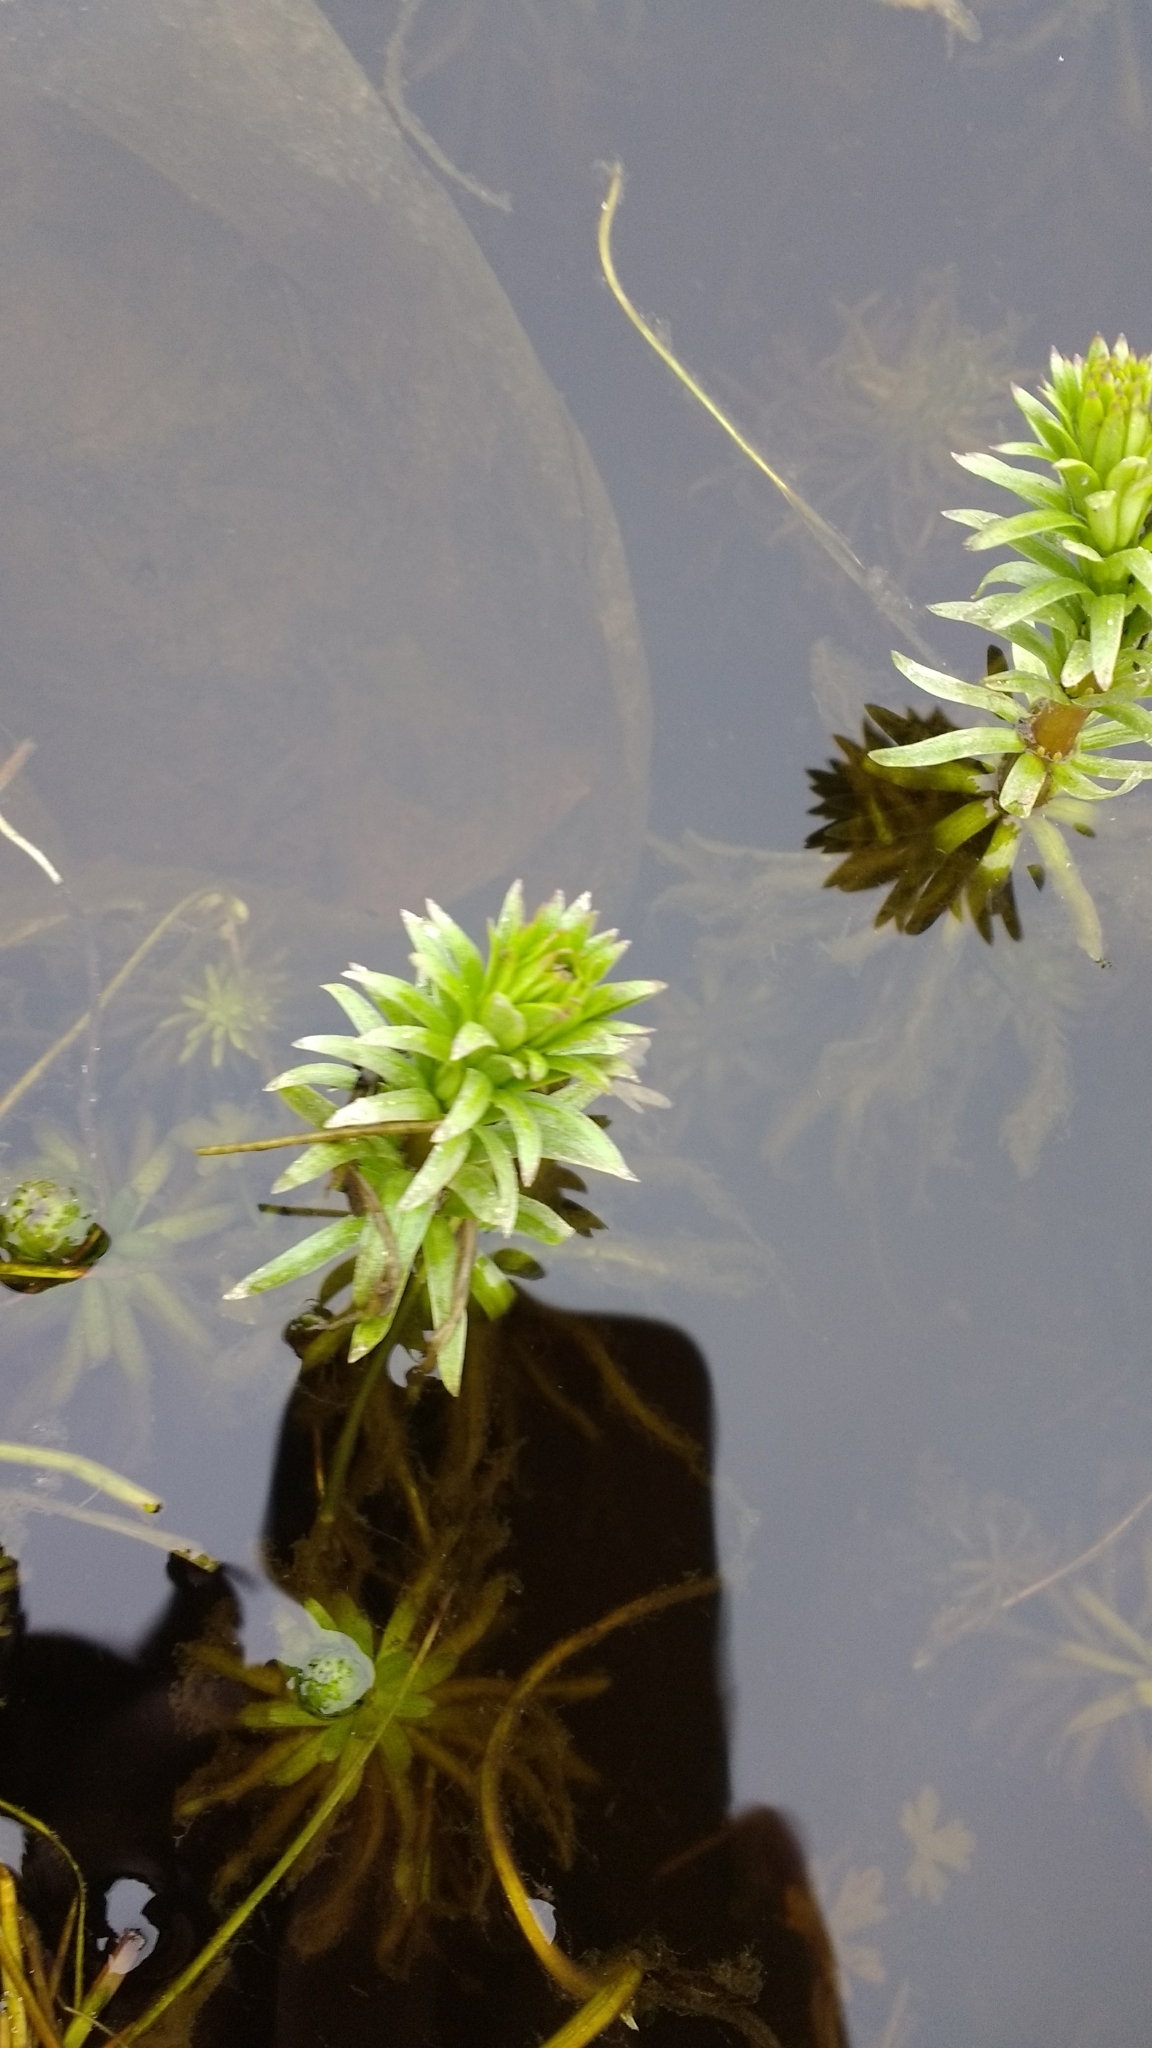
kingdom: Plantae
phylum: Tracheophyta
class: Magnoliopsida
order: Lamiales
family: Plantaginaceae
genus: Hippuris
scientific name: Hippuris vulgaris
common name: Mare's-tail
